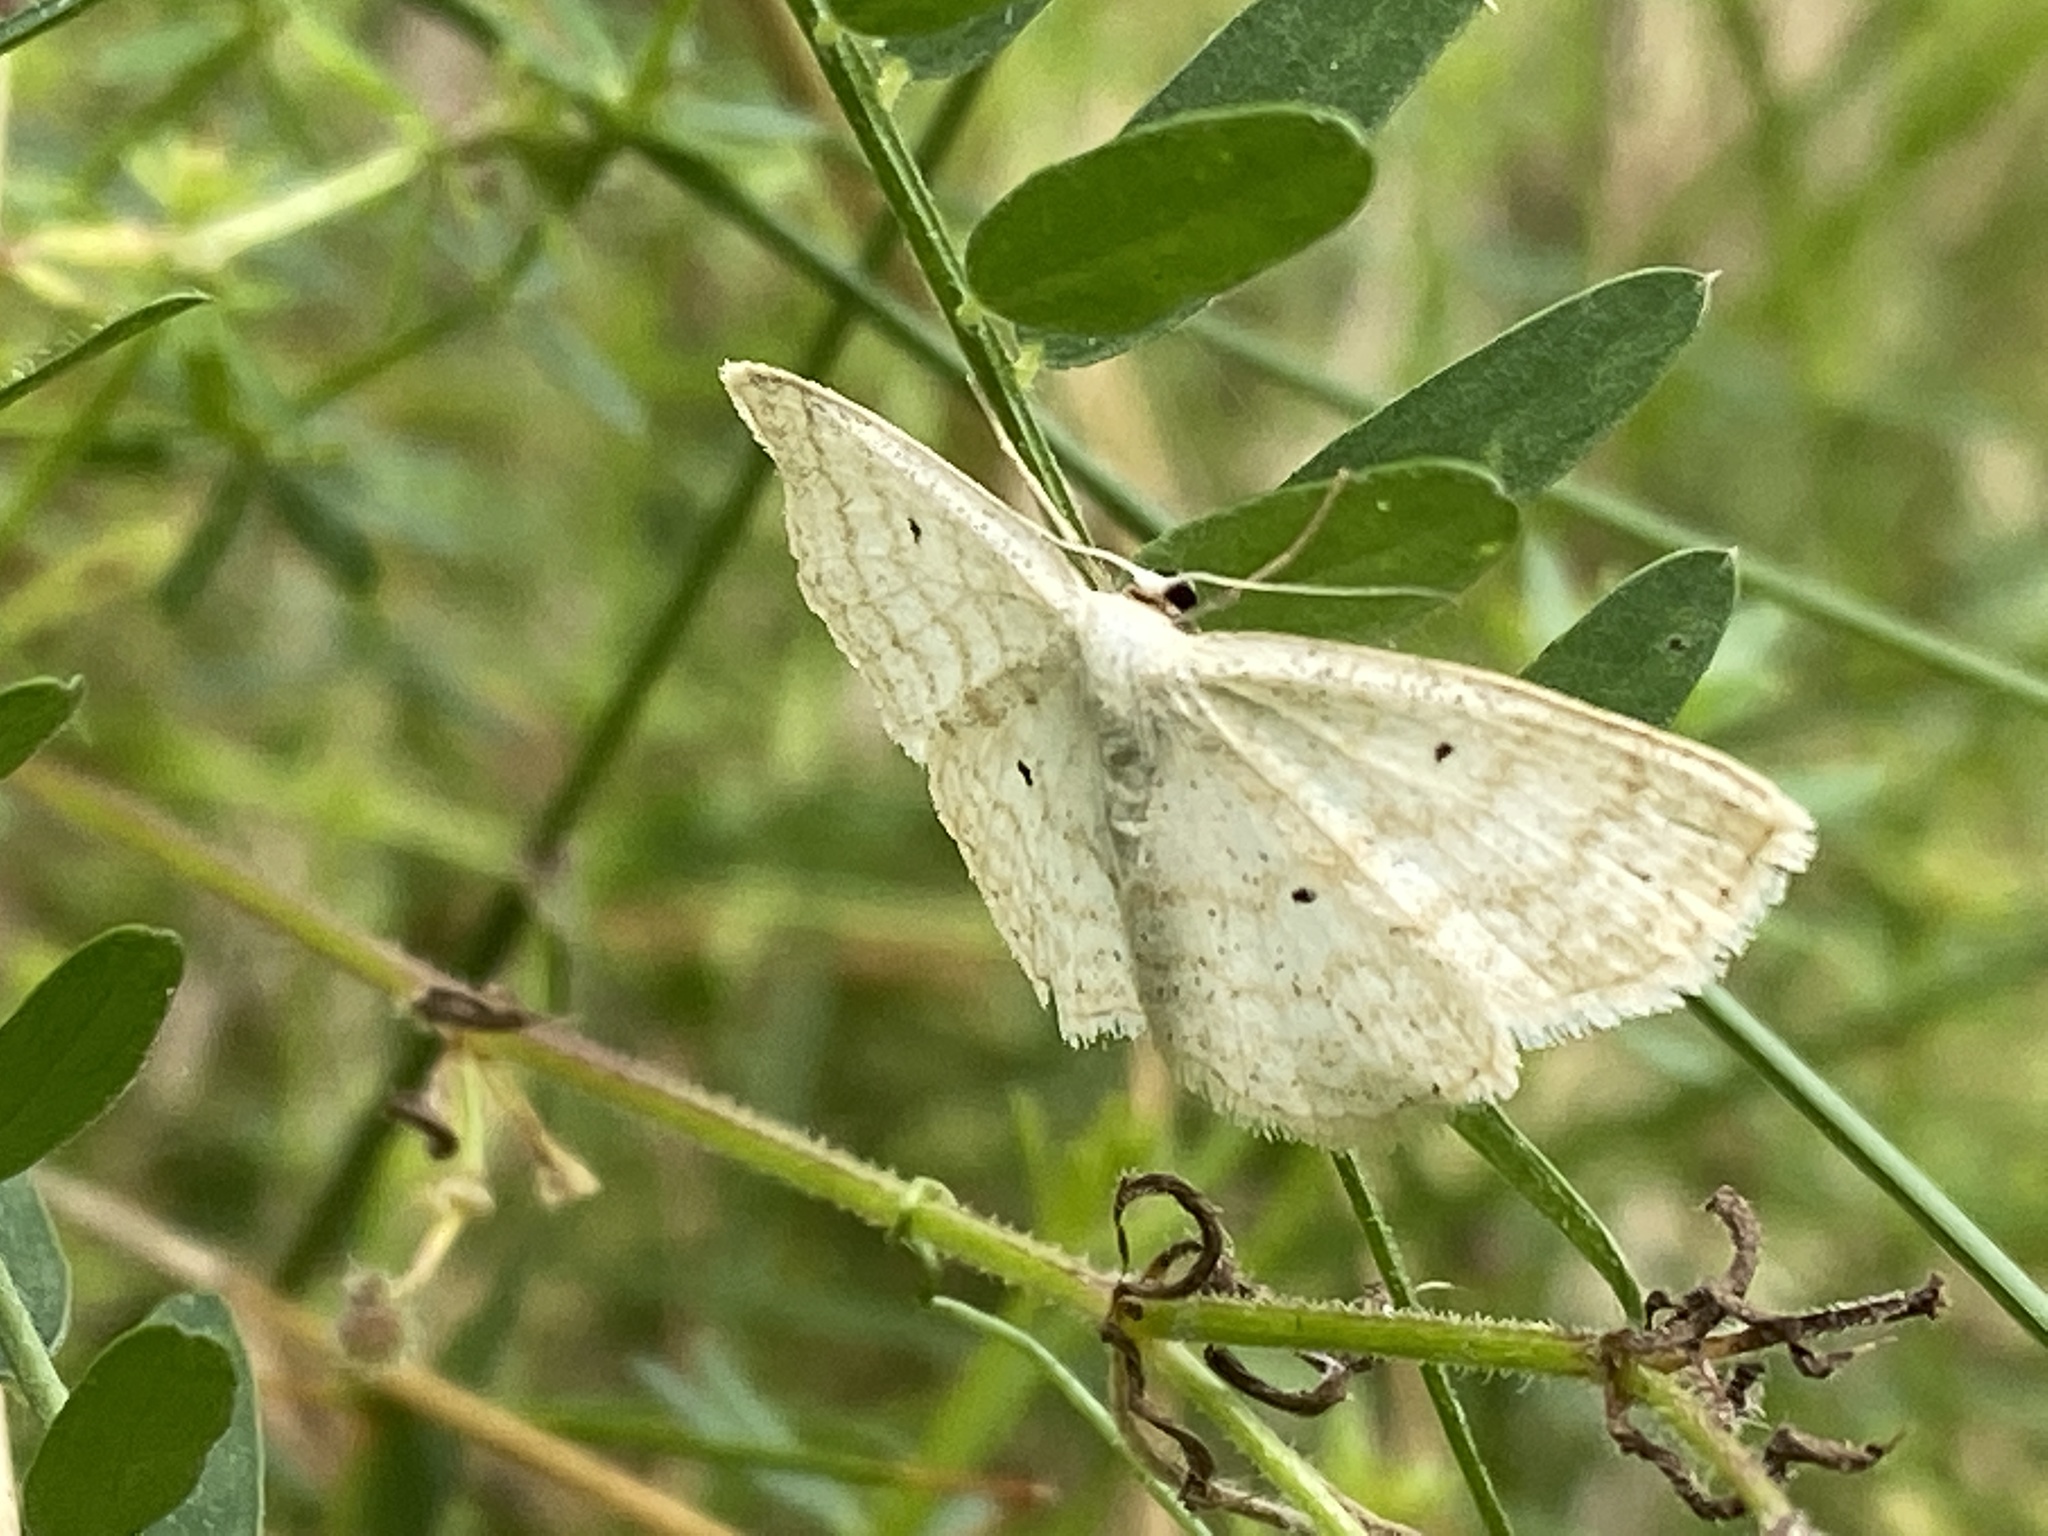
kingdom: Animalia
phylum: Arthropoda
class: Insecta
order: Lepidoptera
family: Geometridae
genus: Scopula
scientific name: Scopula immutata
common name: Lesser cream wave
